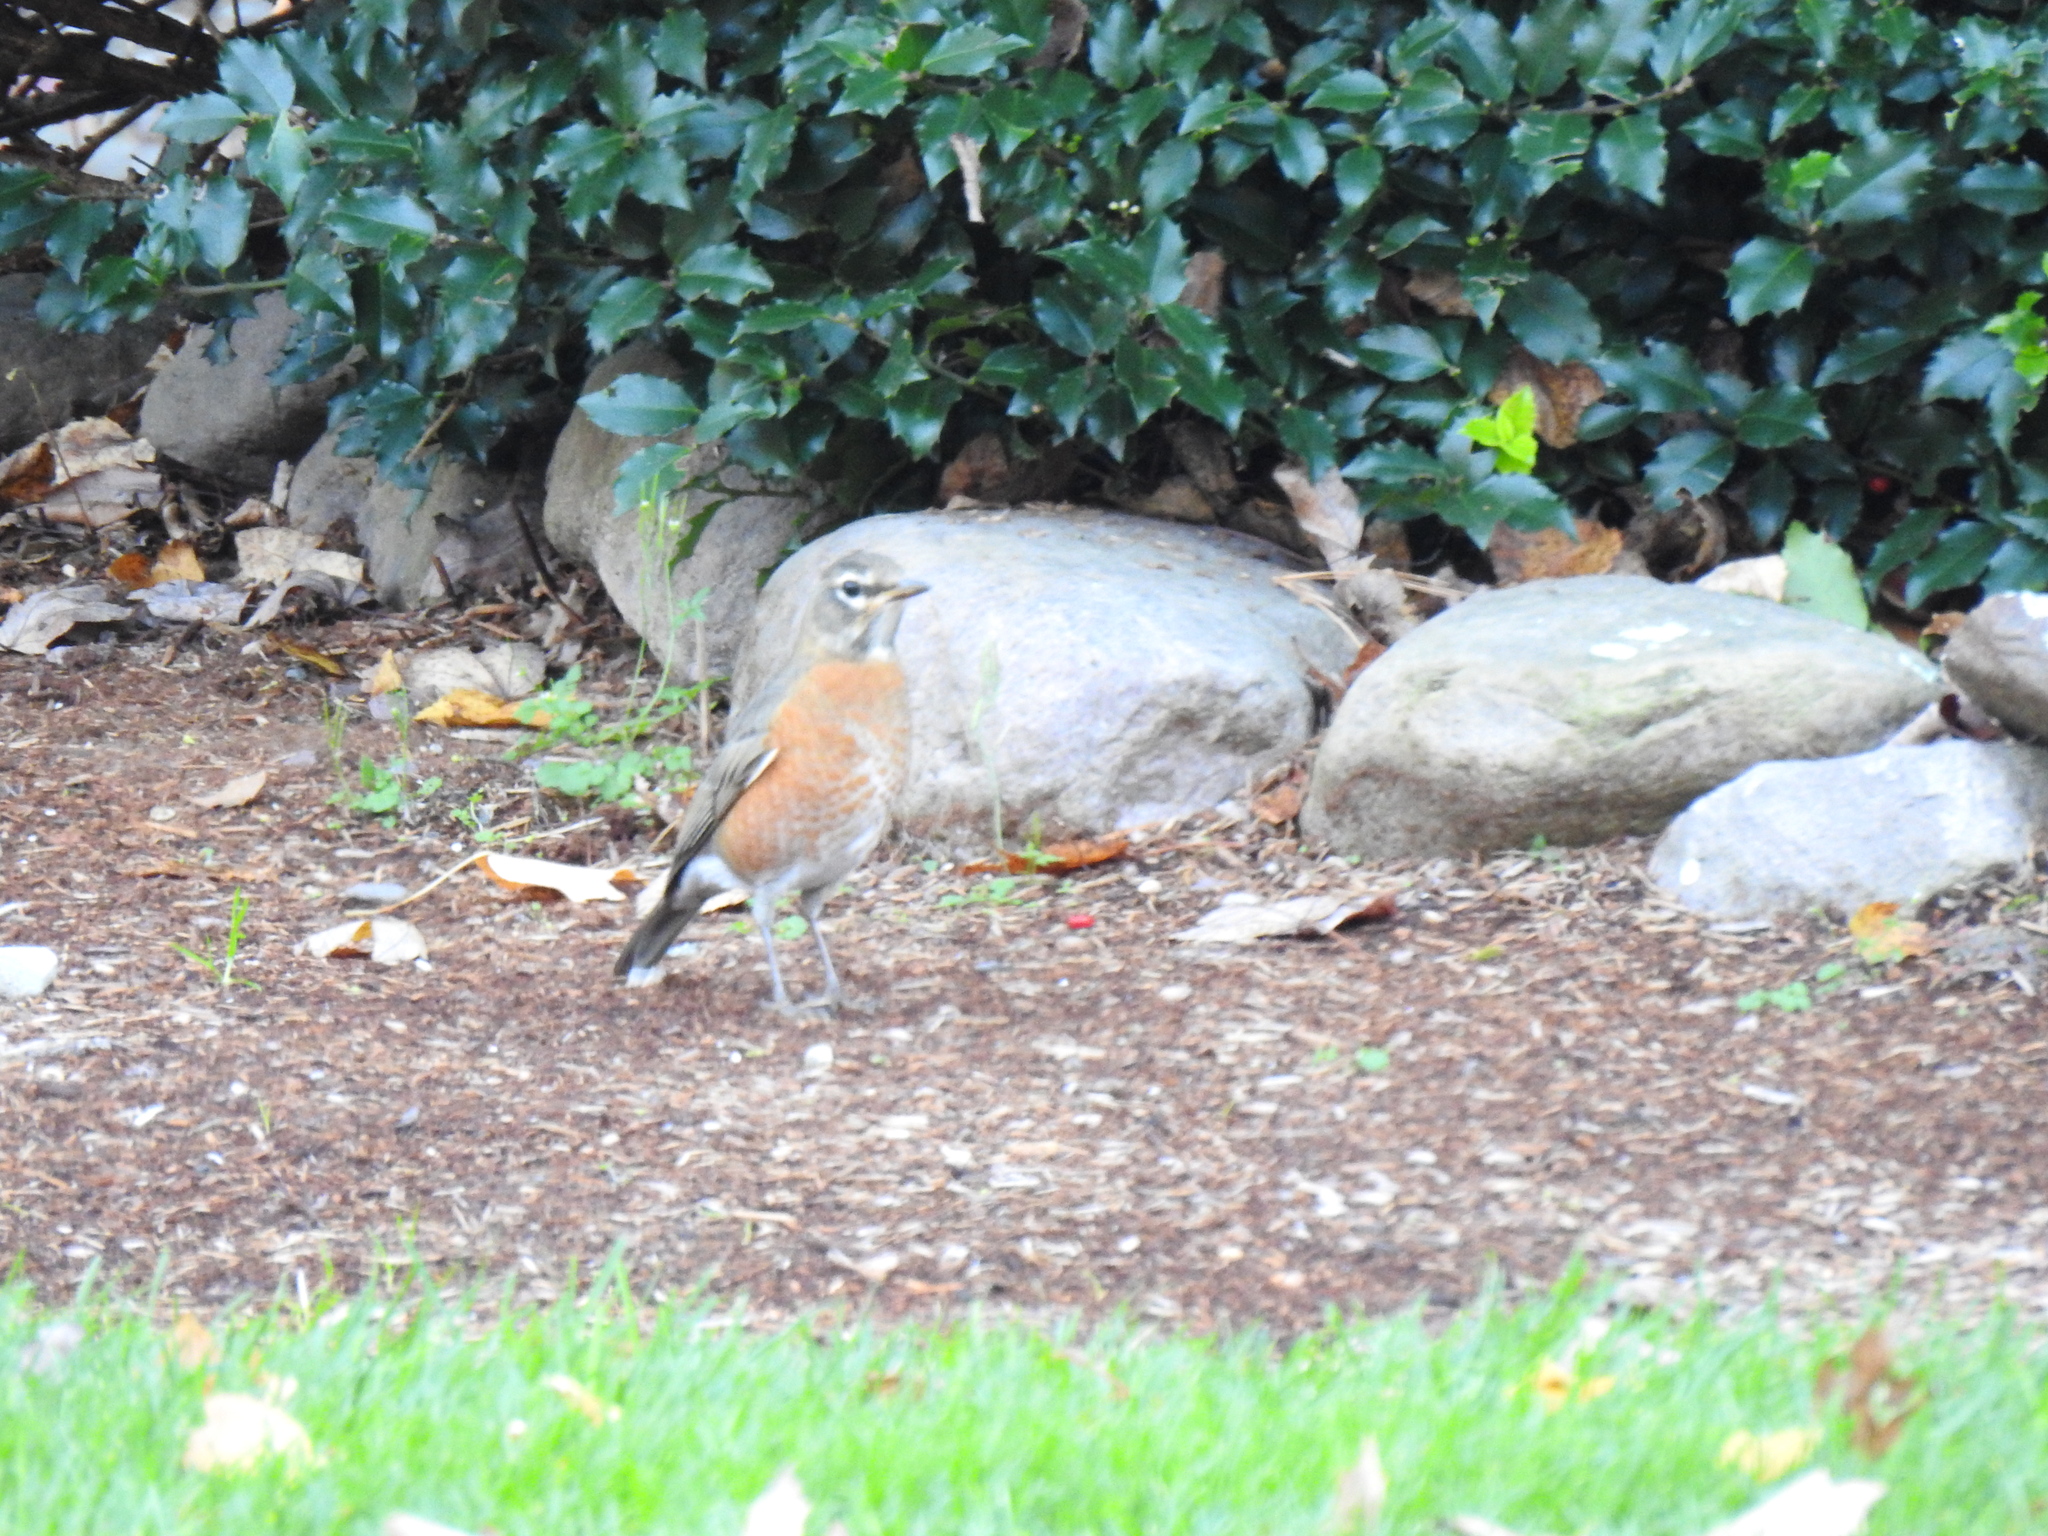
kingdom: Animalia
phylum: Chordata
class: Aves
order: Passeriformes
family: Turdidae
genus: Turdus
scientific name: Turdus migratorius
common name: American robin
